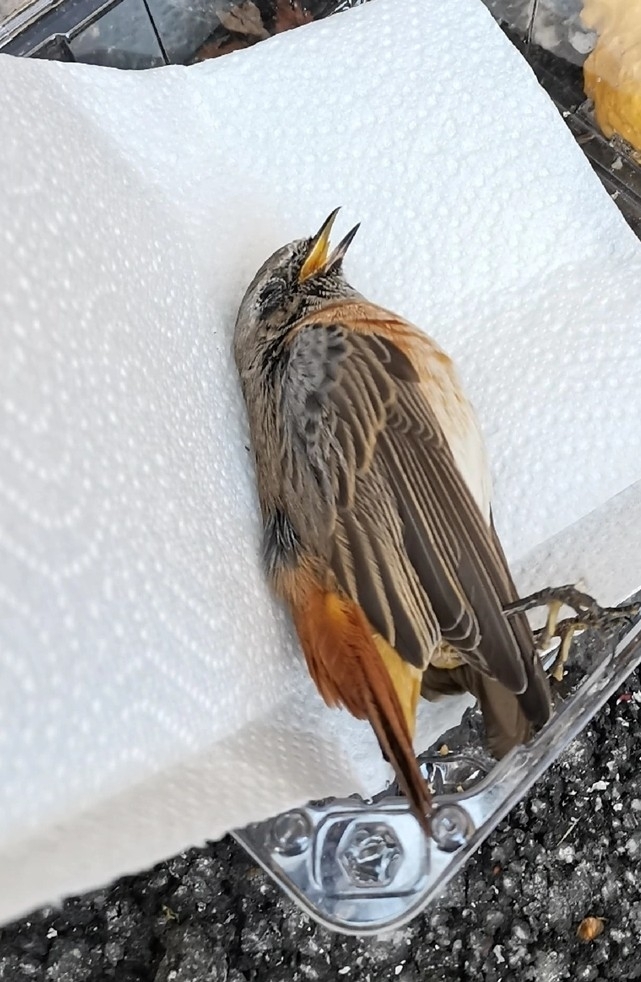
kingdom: Animalia
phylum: Chordata
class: Aves
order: Passeriformes
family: Muscicapidae
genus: Phoenicurus
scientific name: Phoenicurus phoenicurus
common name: Common redstart
